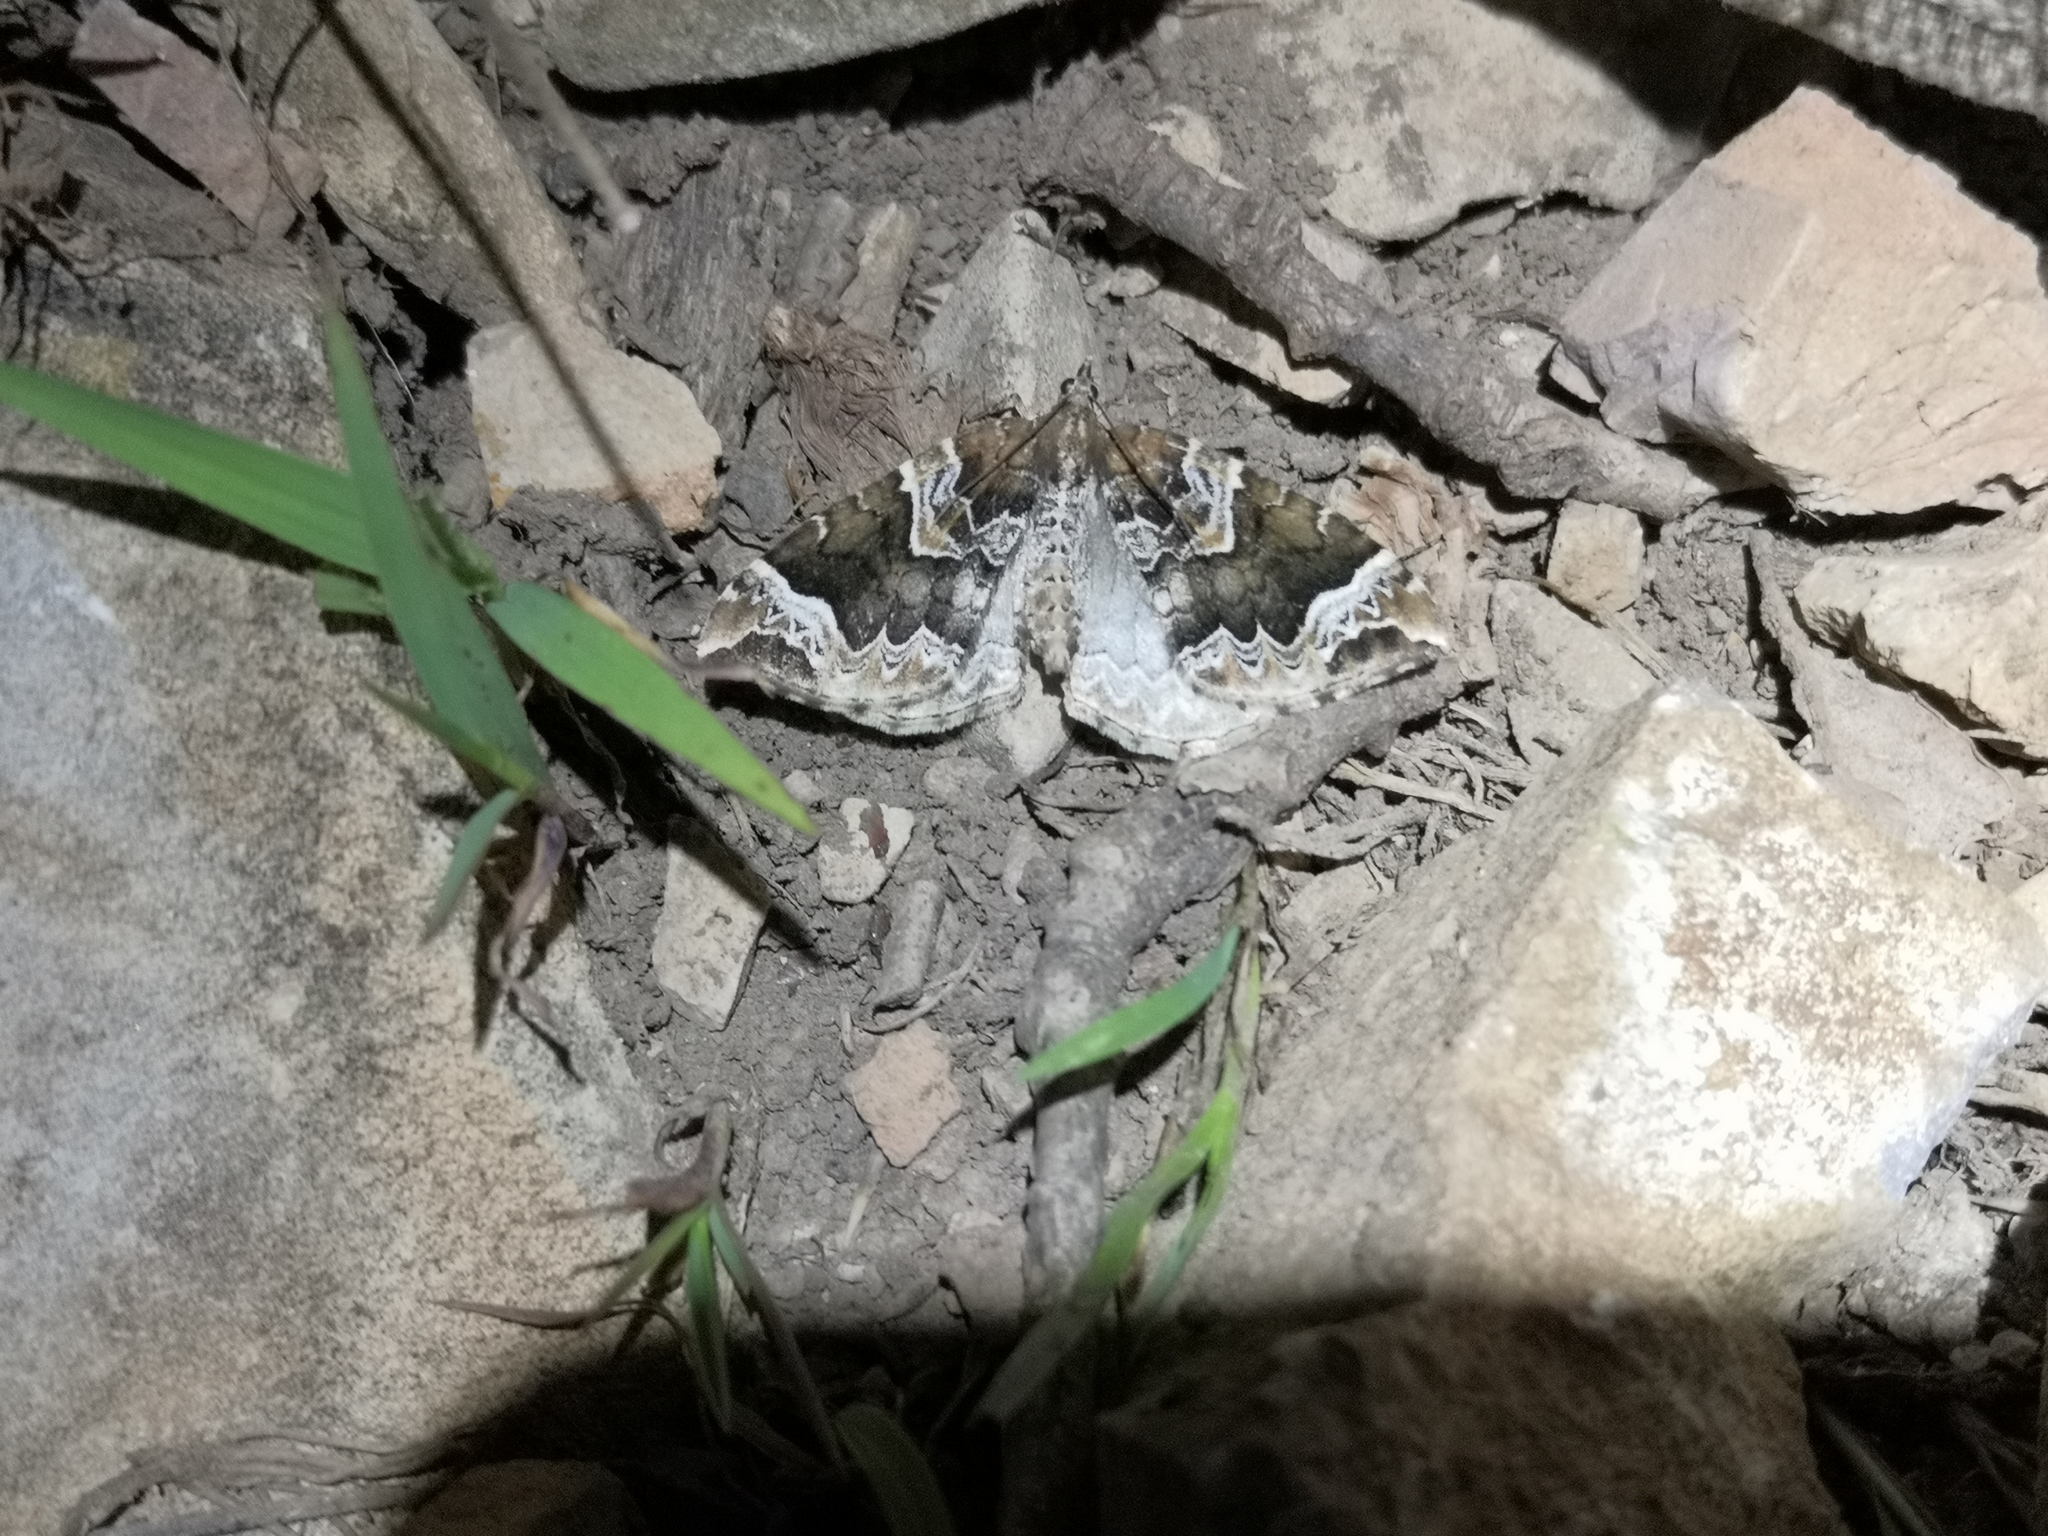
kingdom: Animalia
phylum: Arthropoda
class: Insecta
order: Lepidoptera
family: Geometridae
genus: Eulithis
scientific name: Eulithis prunata
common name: Phoenix
